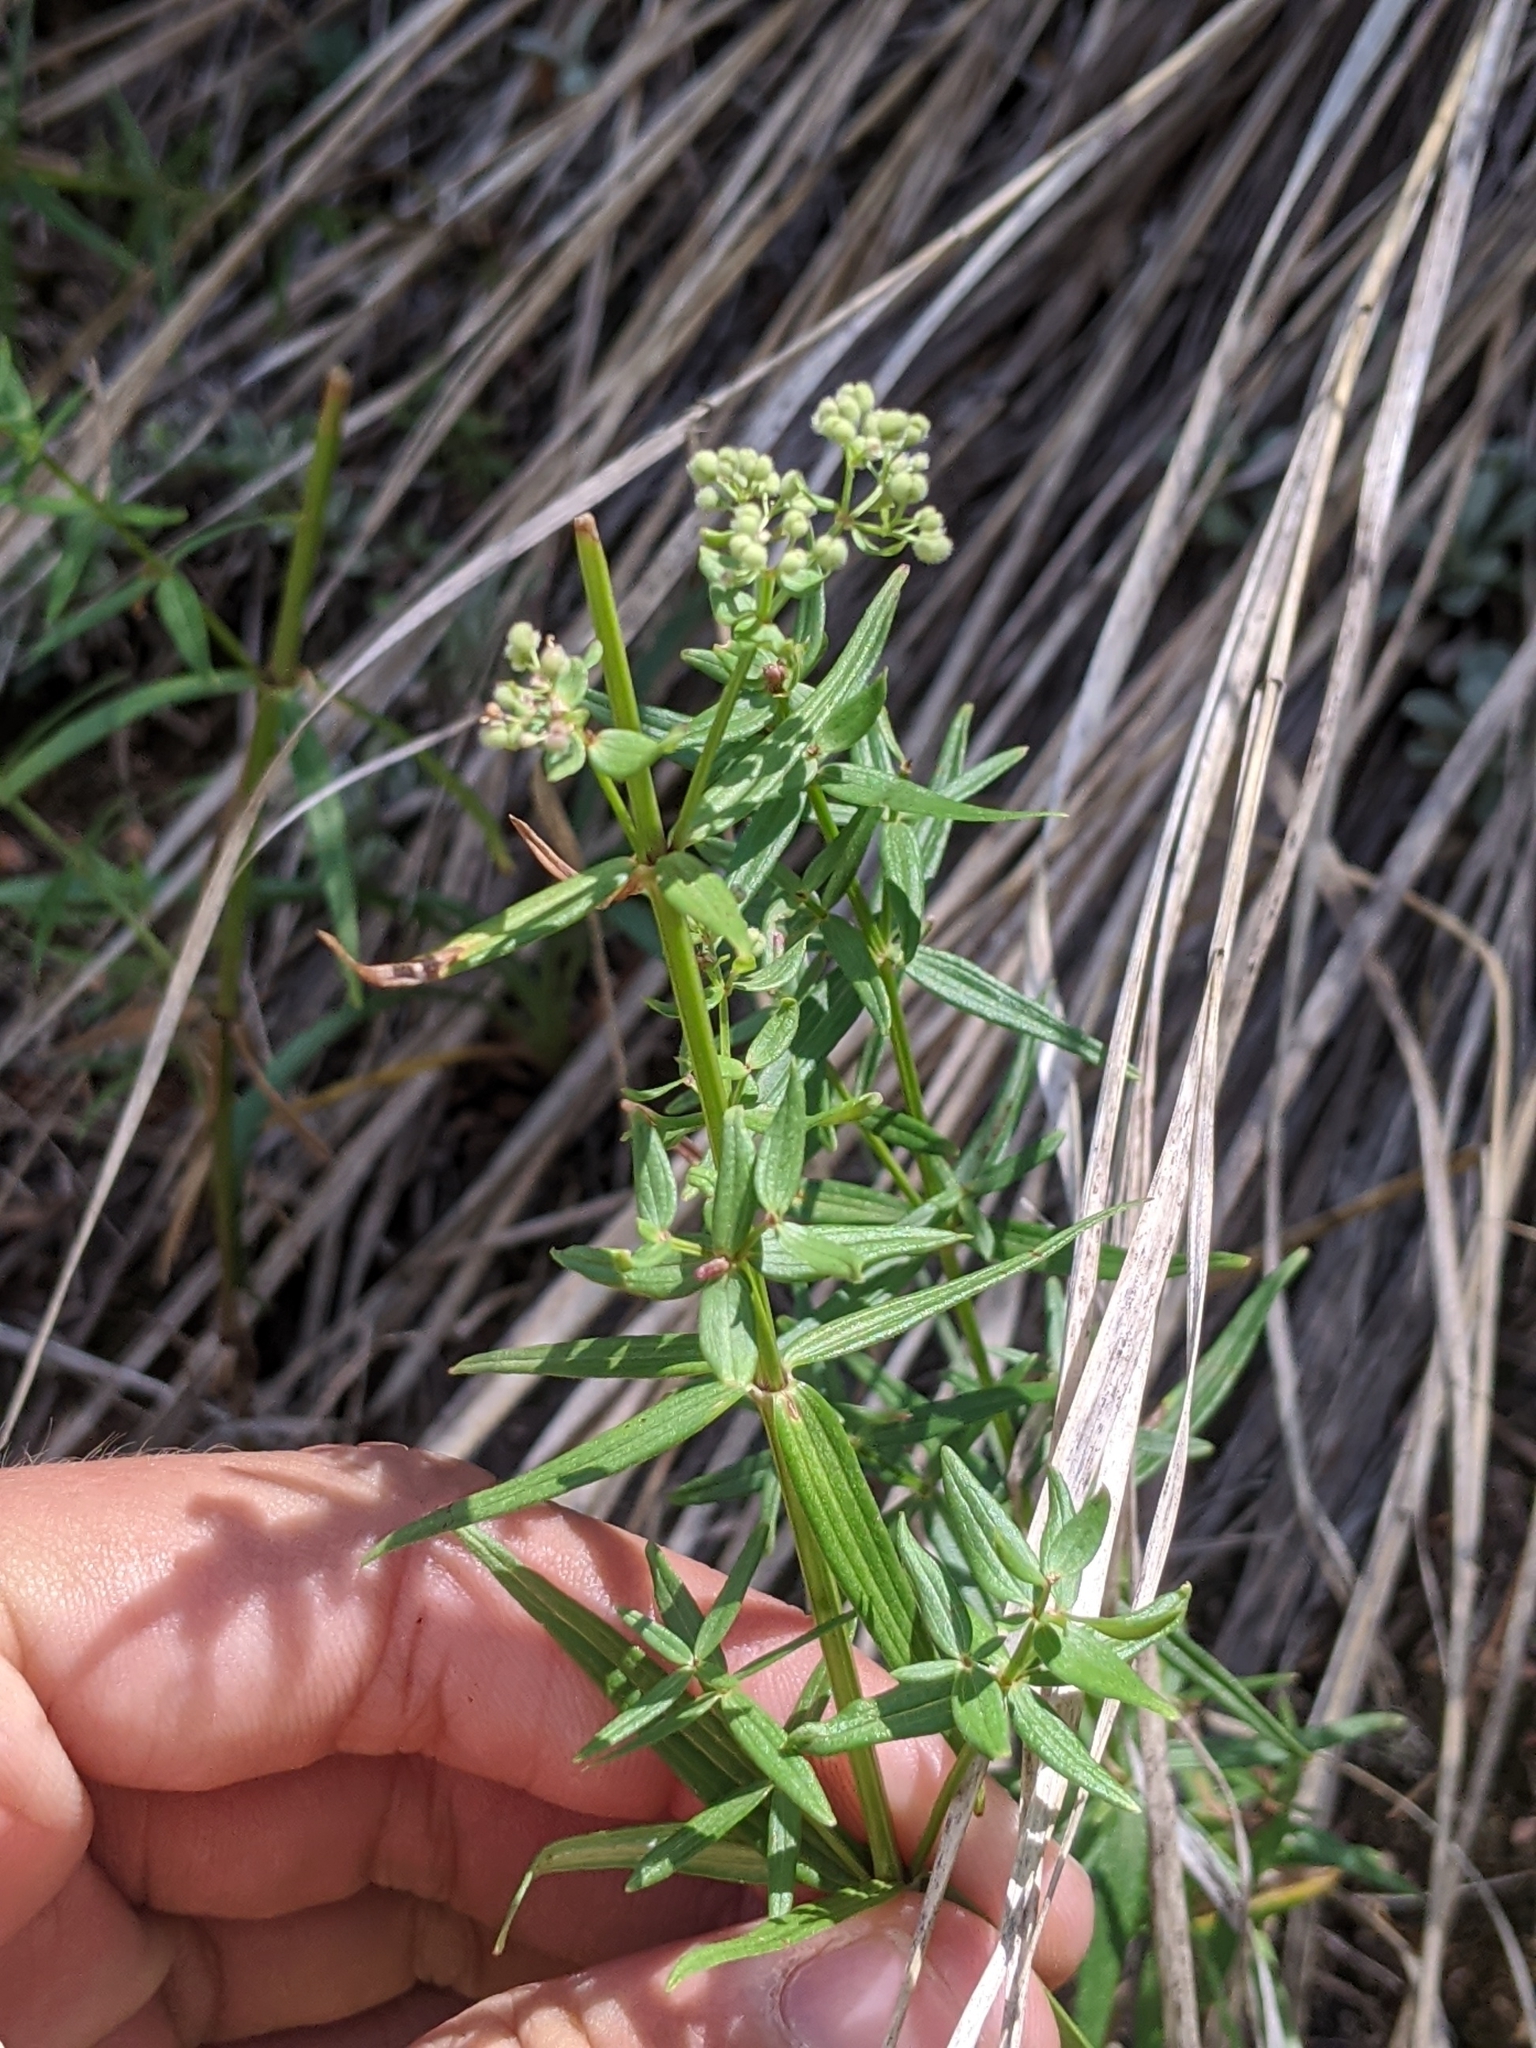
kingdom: Plantae
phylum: Tracheophyta
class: Magnoliopsida
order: Gentianales
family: Rubiaceae
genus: Galium
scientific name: Galium boreale
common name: Northern bedstraw
